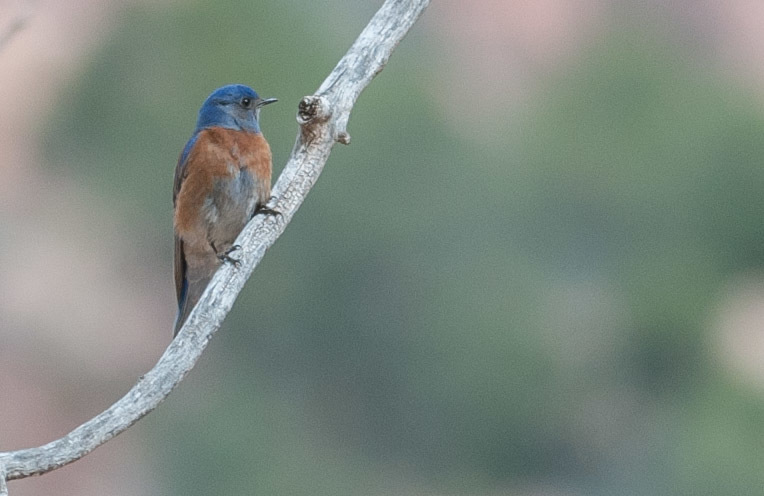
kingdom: Animalia
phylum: Chordata
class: Aves
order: Passeriformes
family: Turdidae
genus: Sialia
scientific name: Sialia mexicana
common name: Western bluebird
